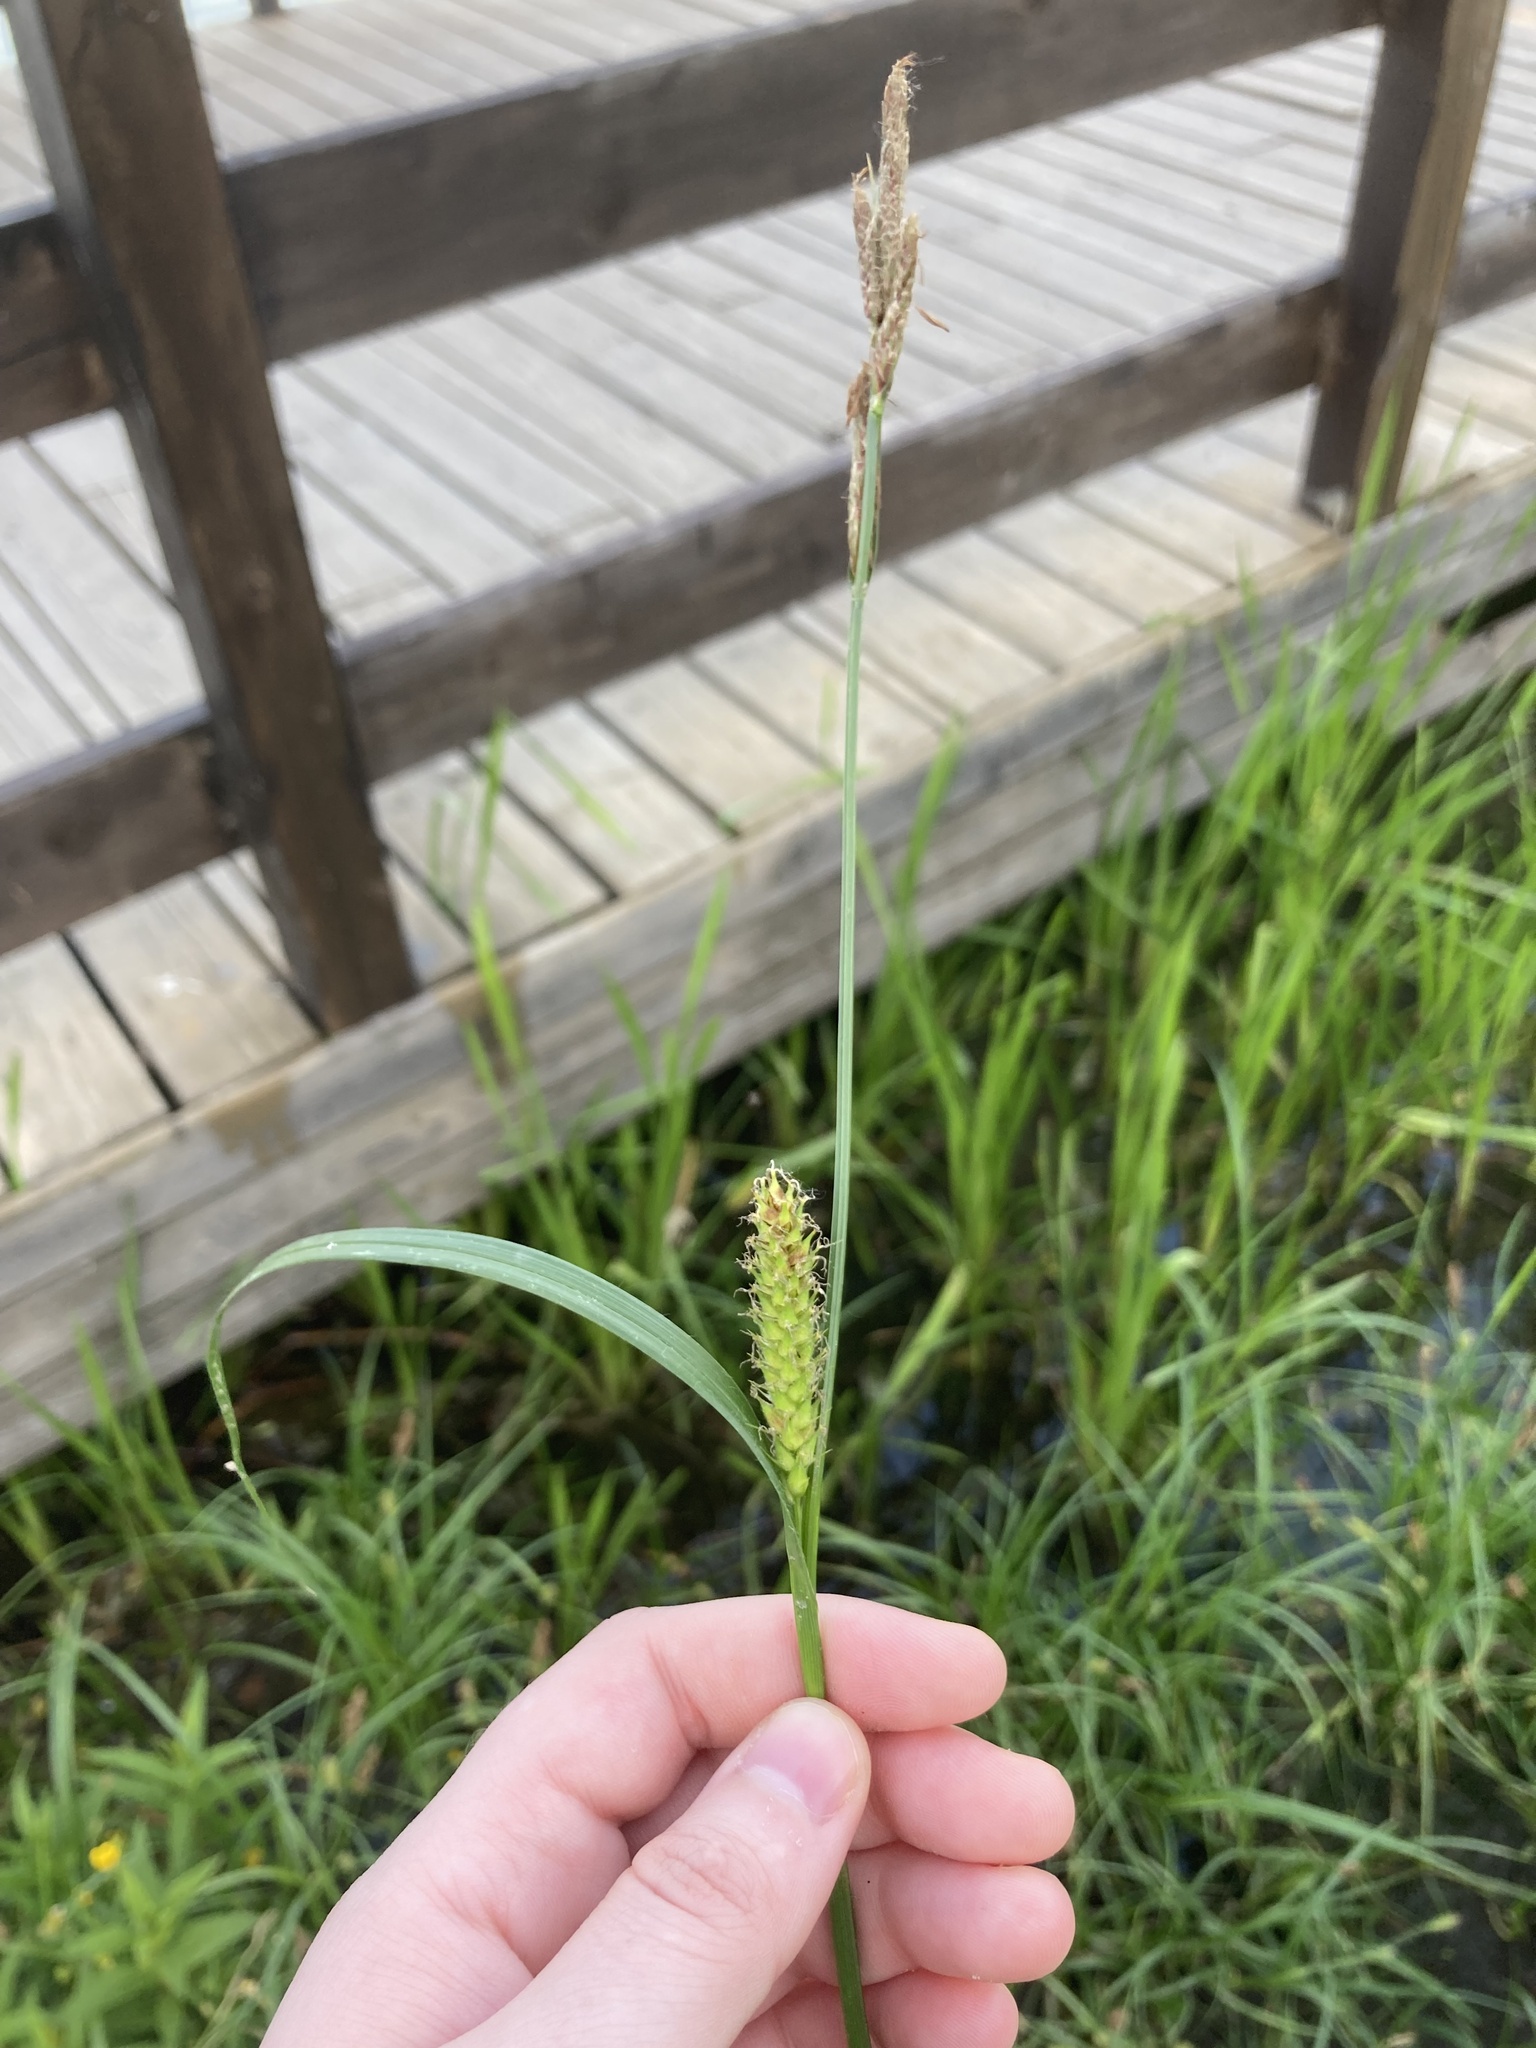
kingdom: Plantae
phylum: Tracheophyta
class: Liliopsida
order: Poales
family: Cyperaceae
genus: Carex
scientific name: Carex hirta
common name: Hairy sedge
